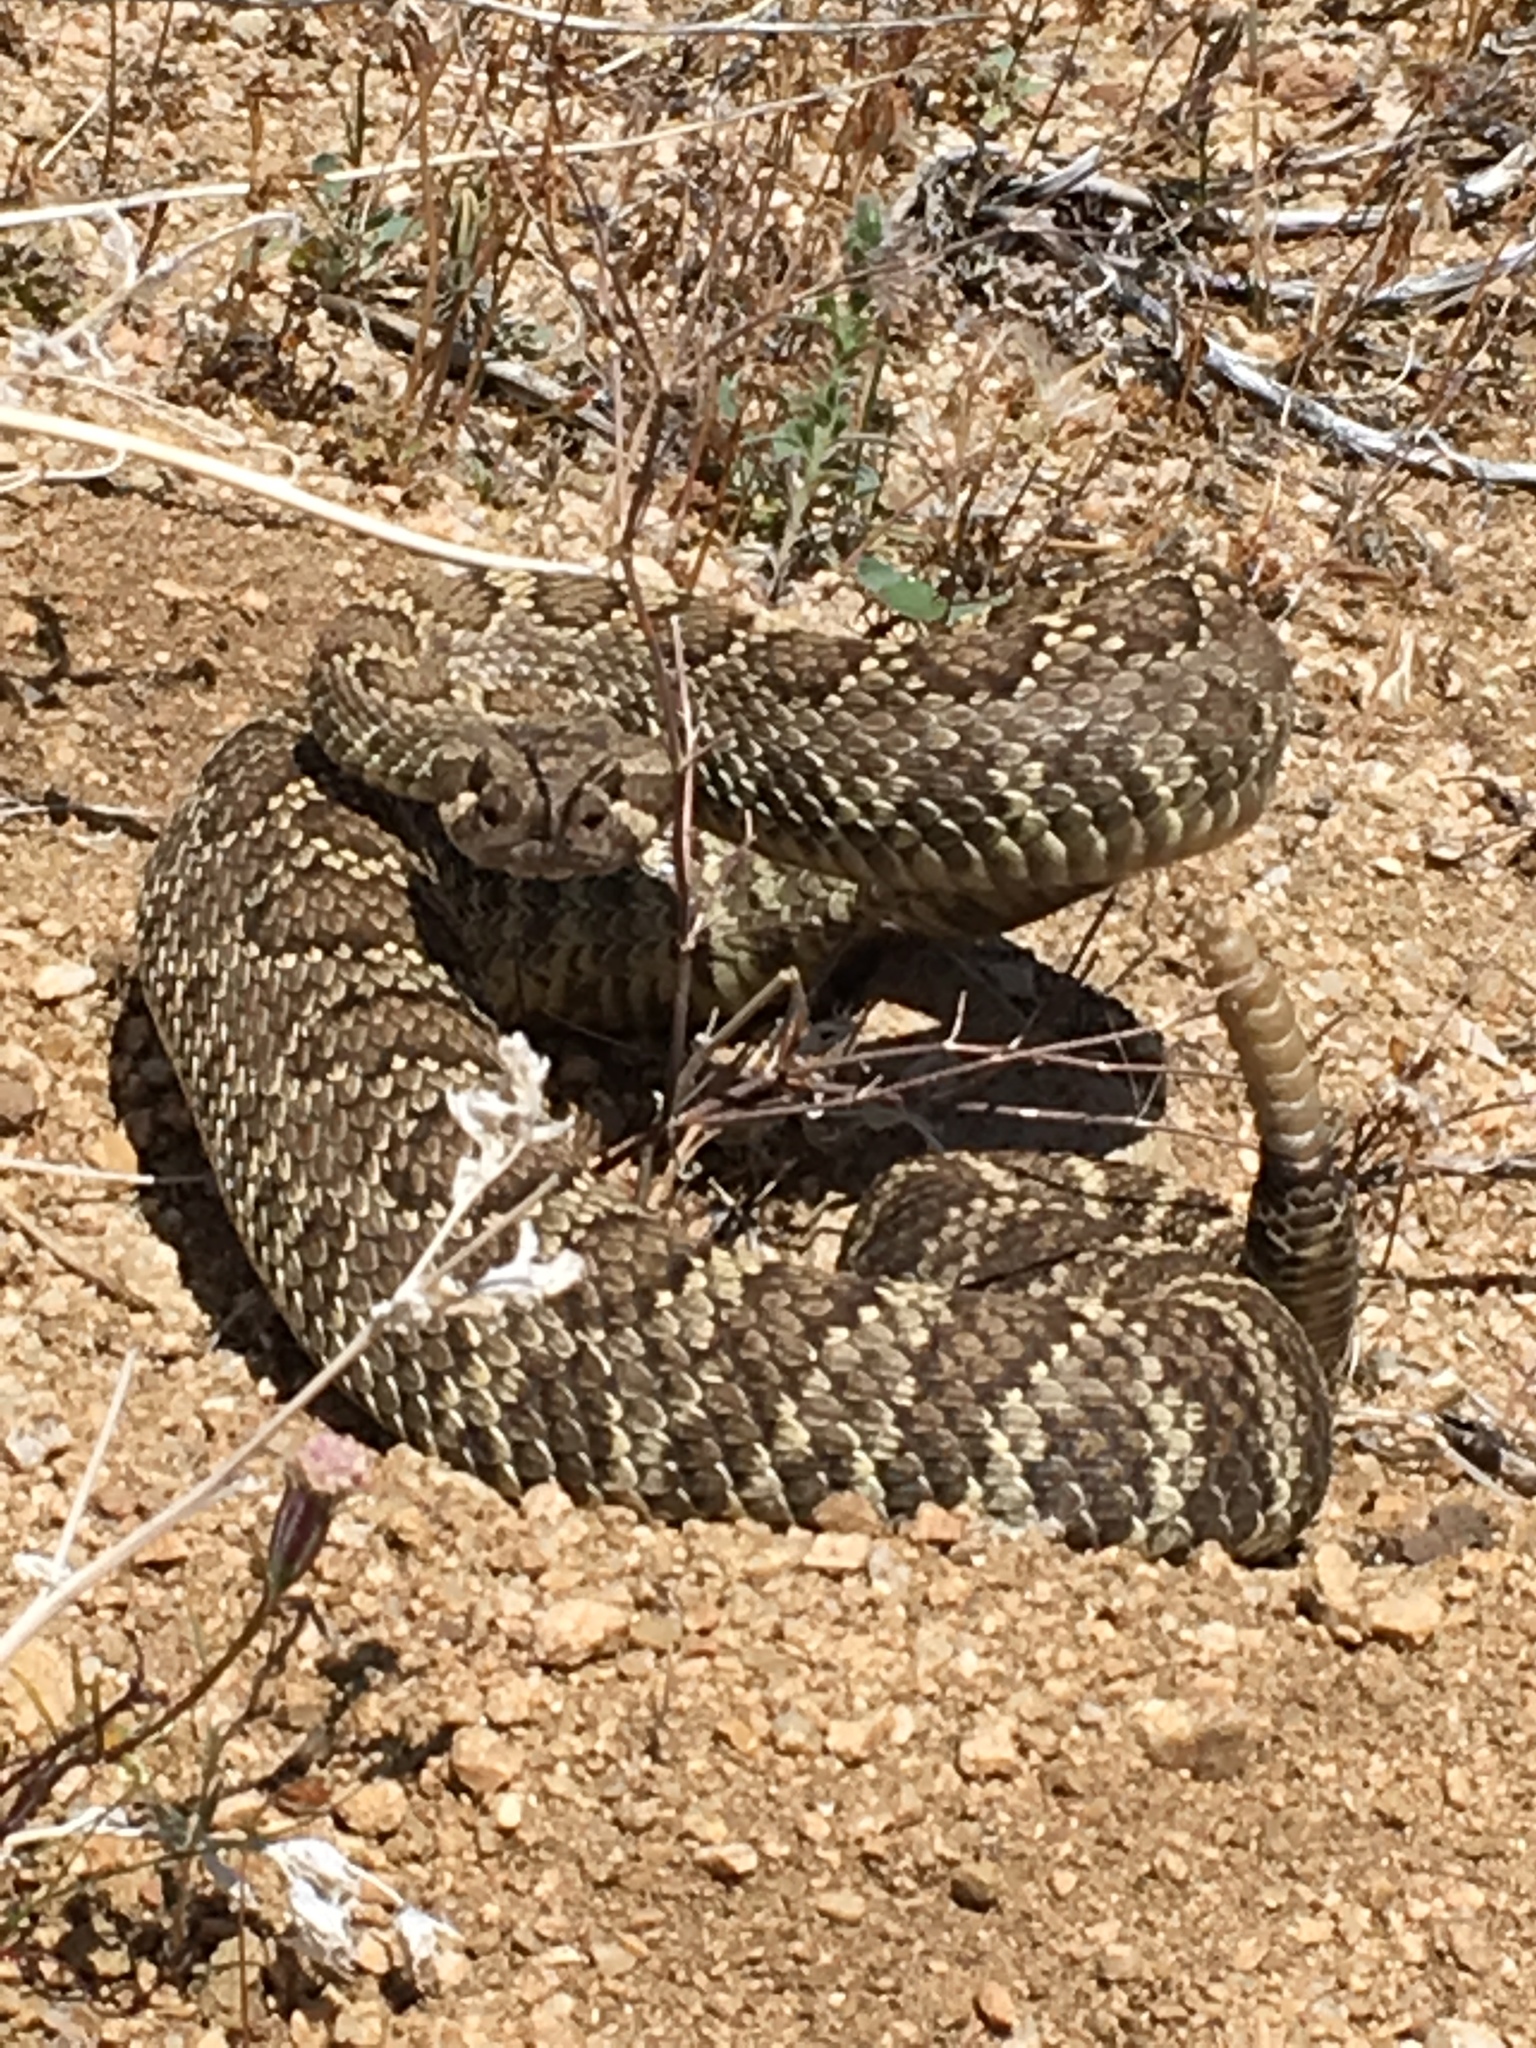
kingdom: Animalia
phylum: Chordata
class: Squamata
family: Viperidae
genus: Crotalus
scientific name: Crotalus oreganus
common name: Abyssus
